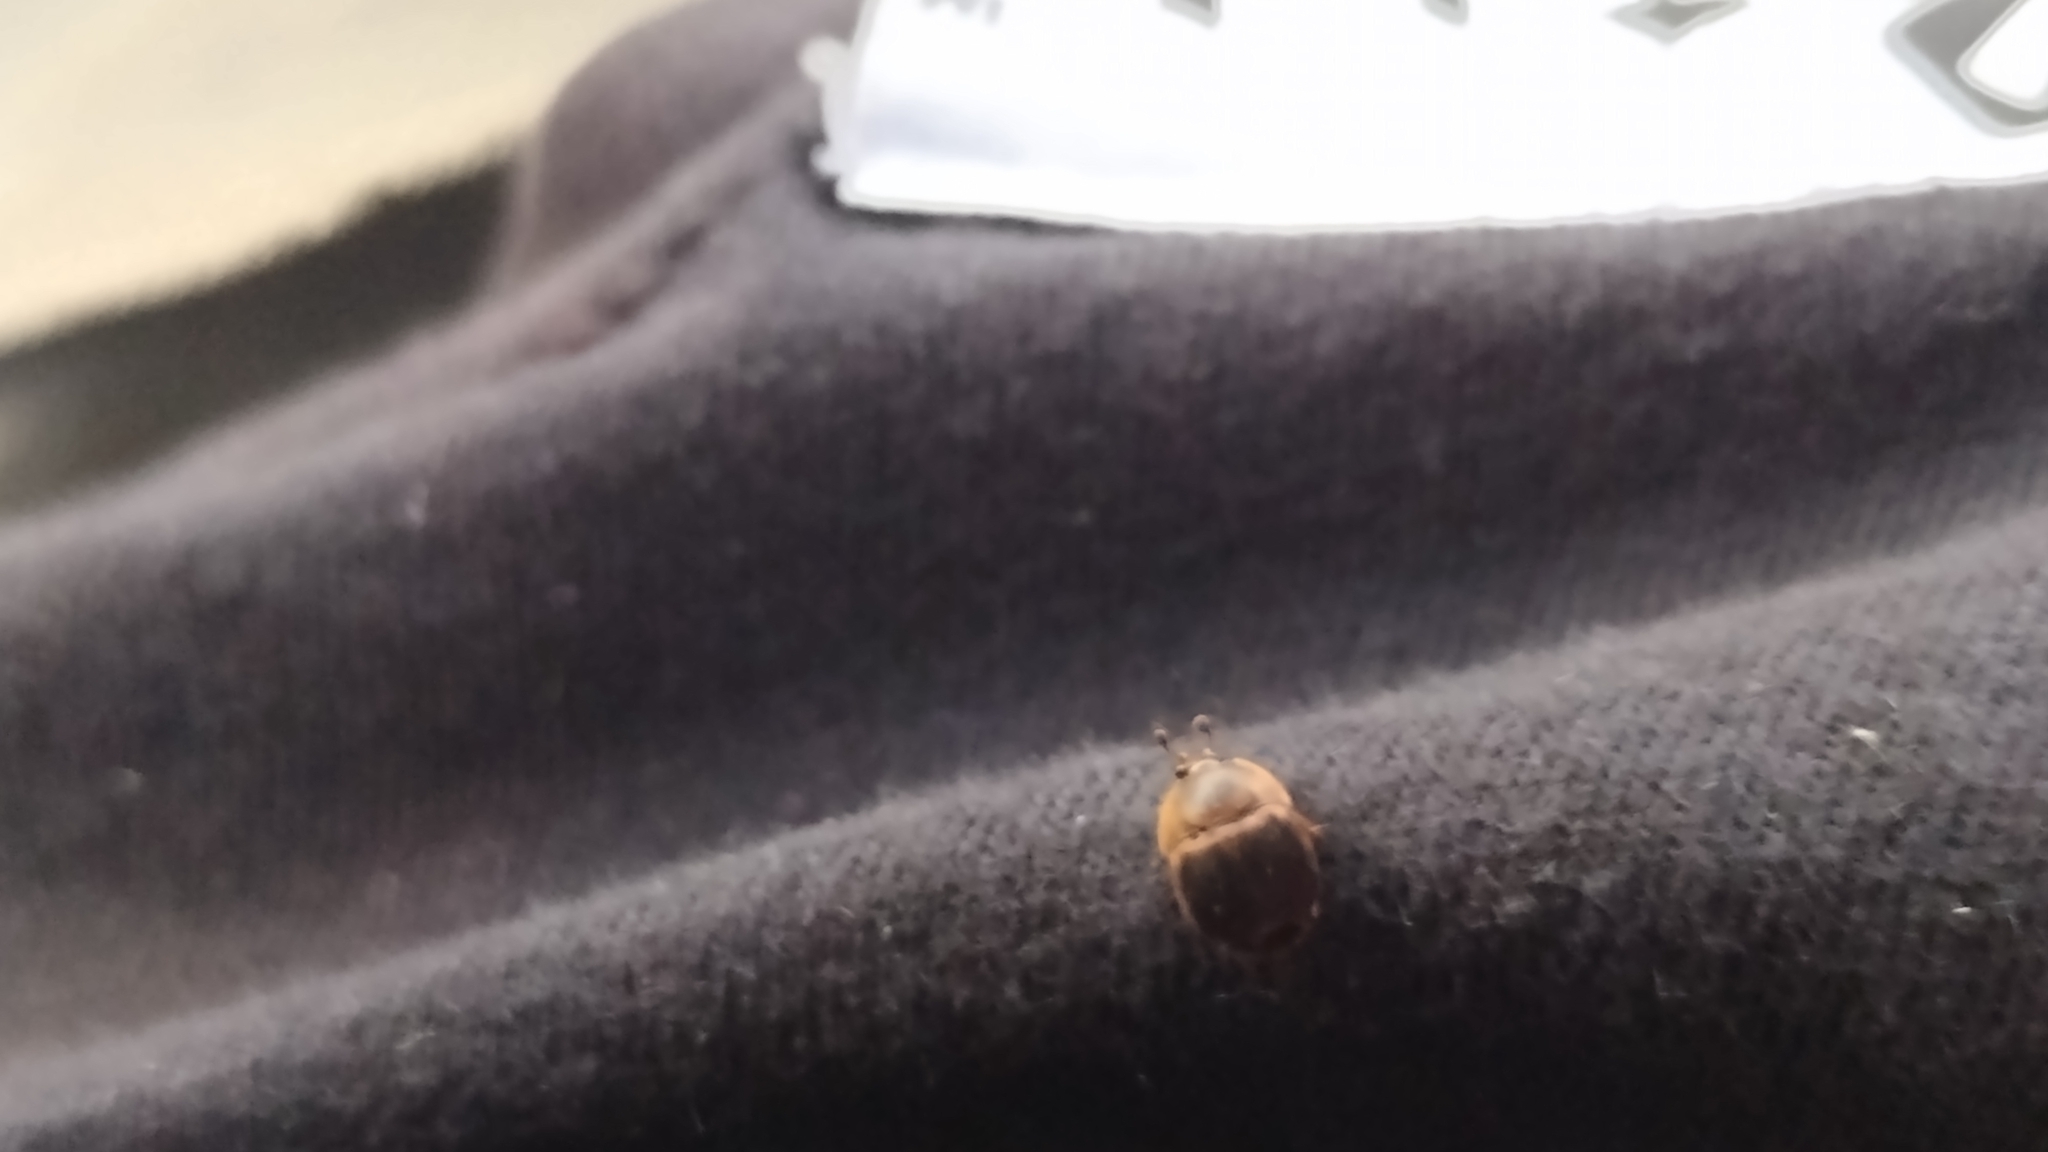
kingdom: Animalia
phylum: Arthropoda
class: Insecta
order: Coleoptera
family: Nitidulidae
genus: Aethina
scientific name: Aethina tumida
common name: Small hive beetle
